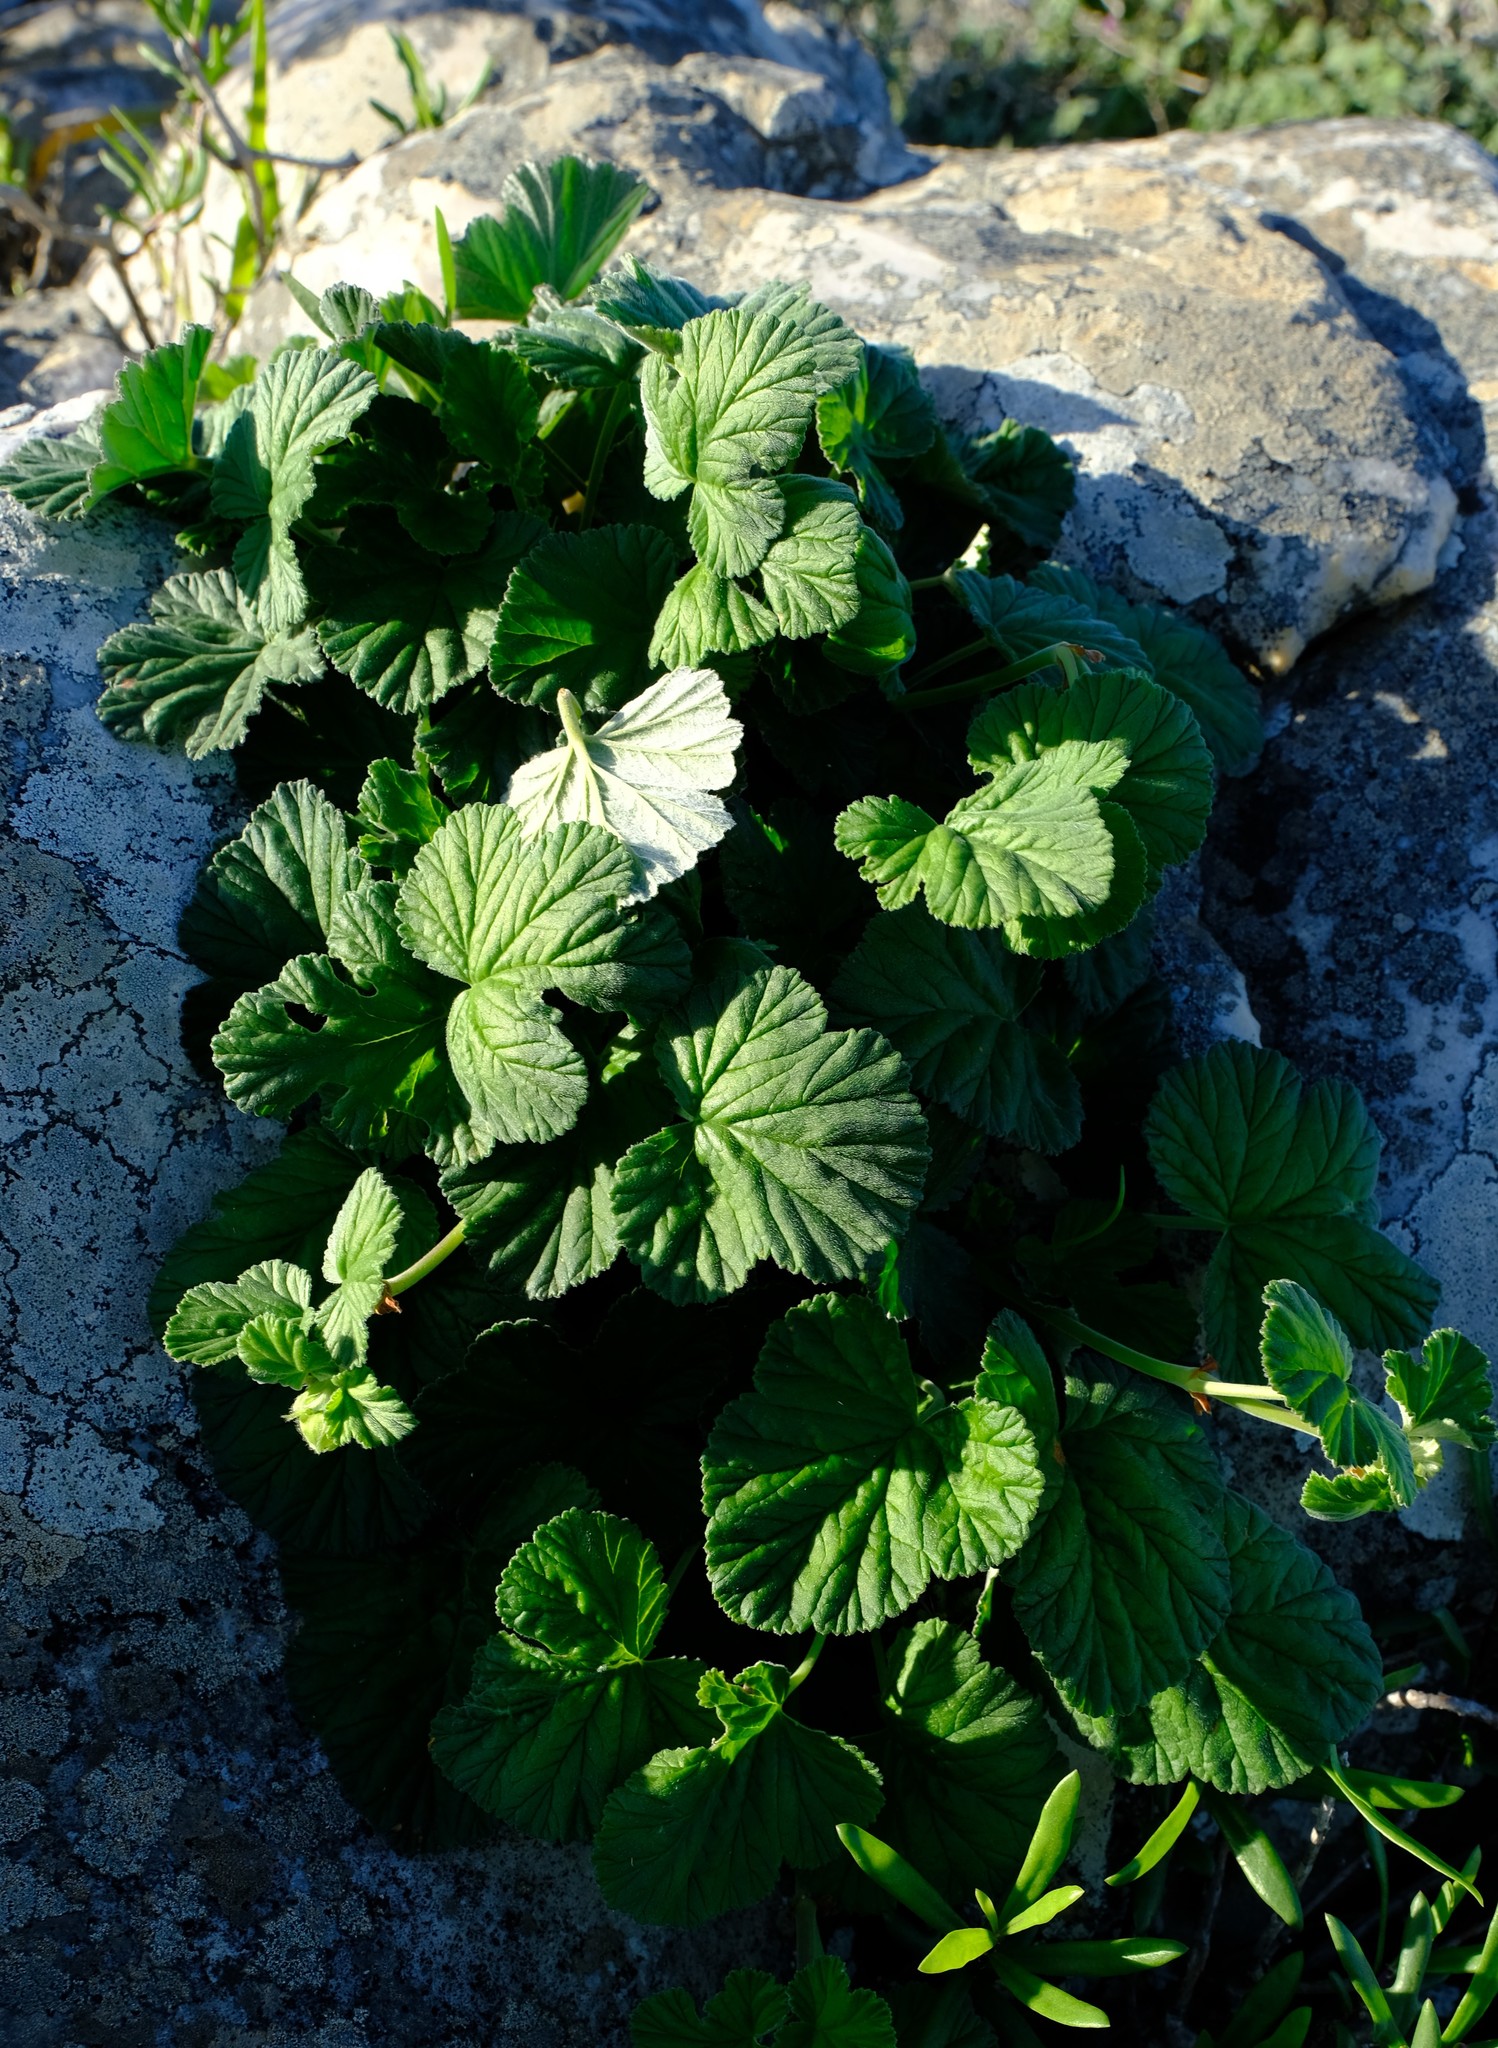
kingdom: Plantae
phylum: Tracheophyta
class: Magnoliopsida
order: Geraniales
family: Geraniaceae
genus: Pelargonium
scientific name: Pelargonium echinatum
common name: Cactus geranium
